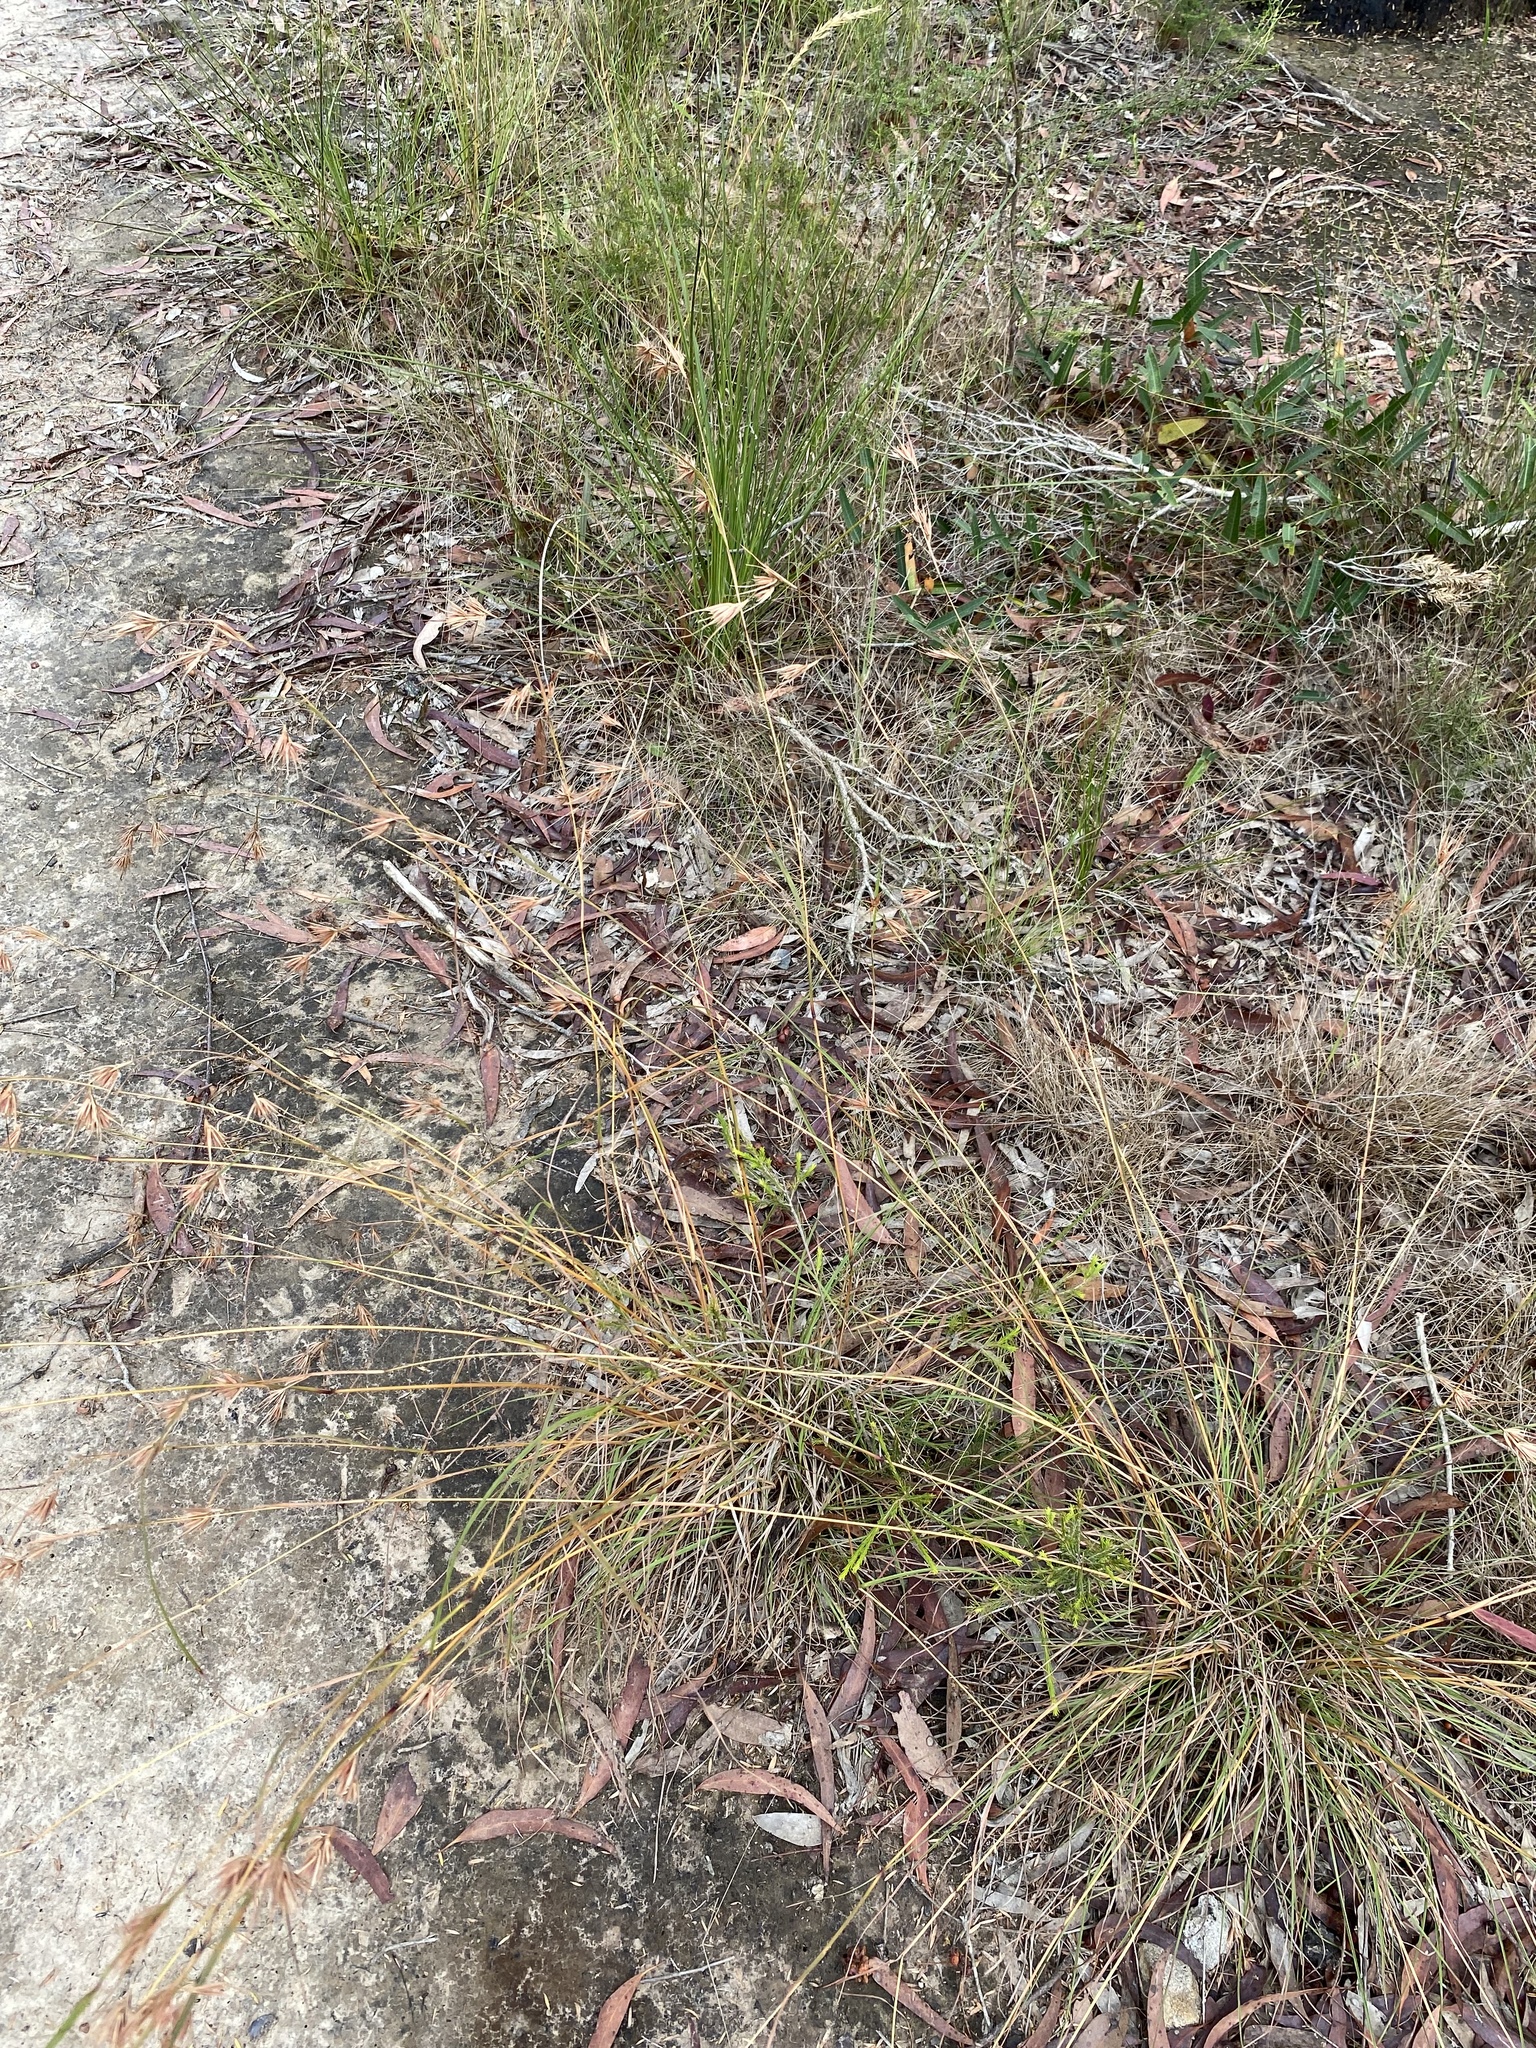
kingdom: Plantae
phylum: Tracheophyta
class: Liliopsida
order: Poales
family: Poaceae
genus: Themeda
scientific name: Themeda triandra
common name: Kangaroo grass
